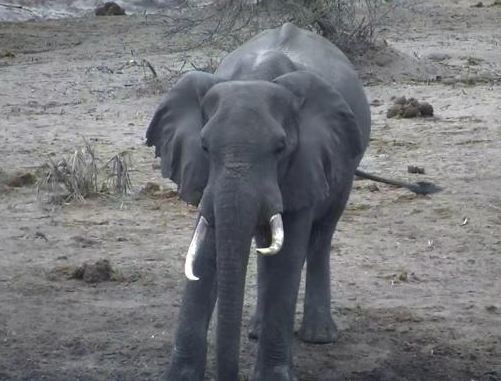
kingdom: Animalia
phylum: Chordata
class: Mammalia
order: Proboscidea
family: Elephantidae
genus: Loxodonta
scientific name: Loxodonta africana
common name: African elephant
